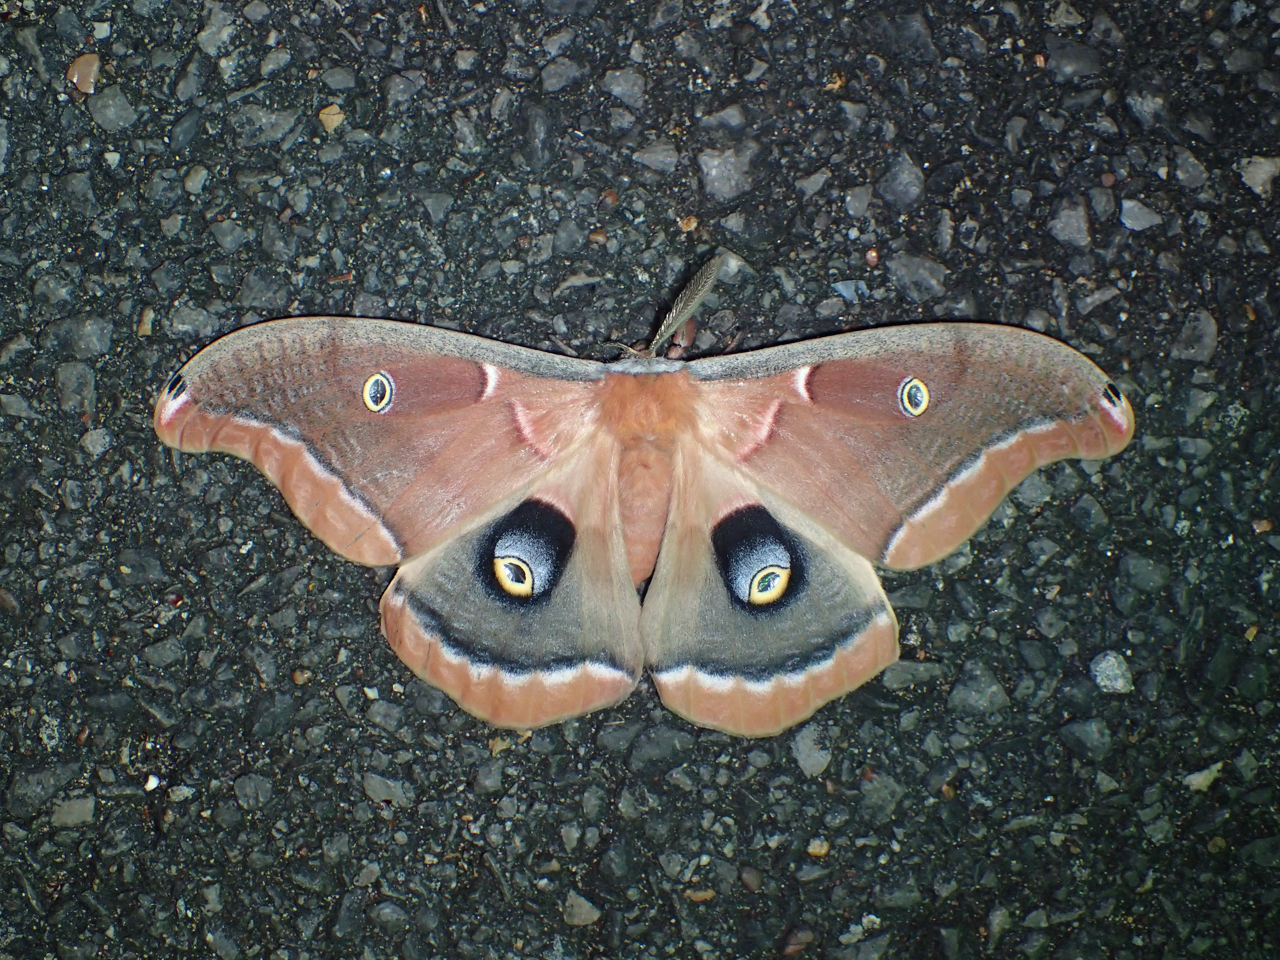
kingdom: Animalia
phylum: Arthropoda
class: Insecta
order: Lepidoptera
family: Saturniidae
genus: Antheraea
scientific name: Antheraea polyphemus
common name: Polyphemus moth
